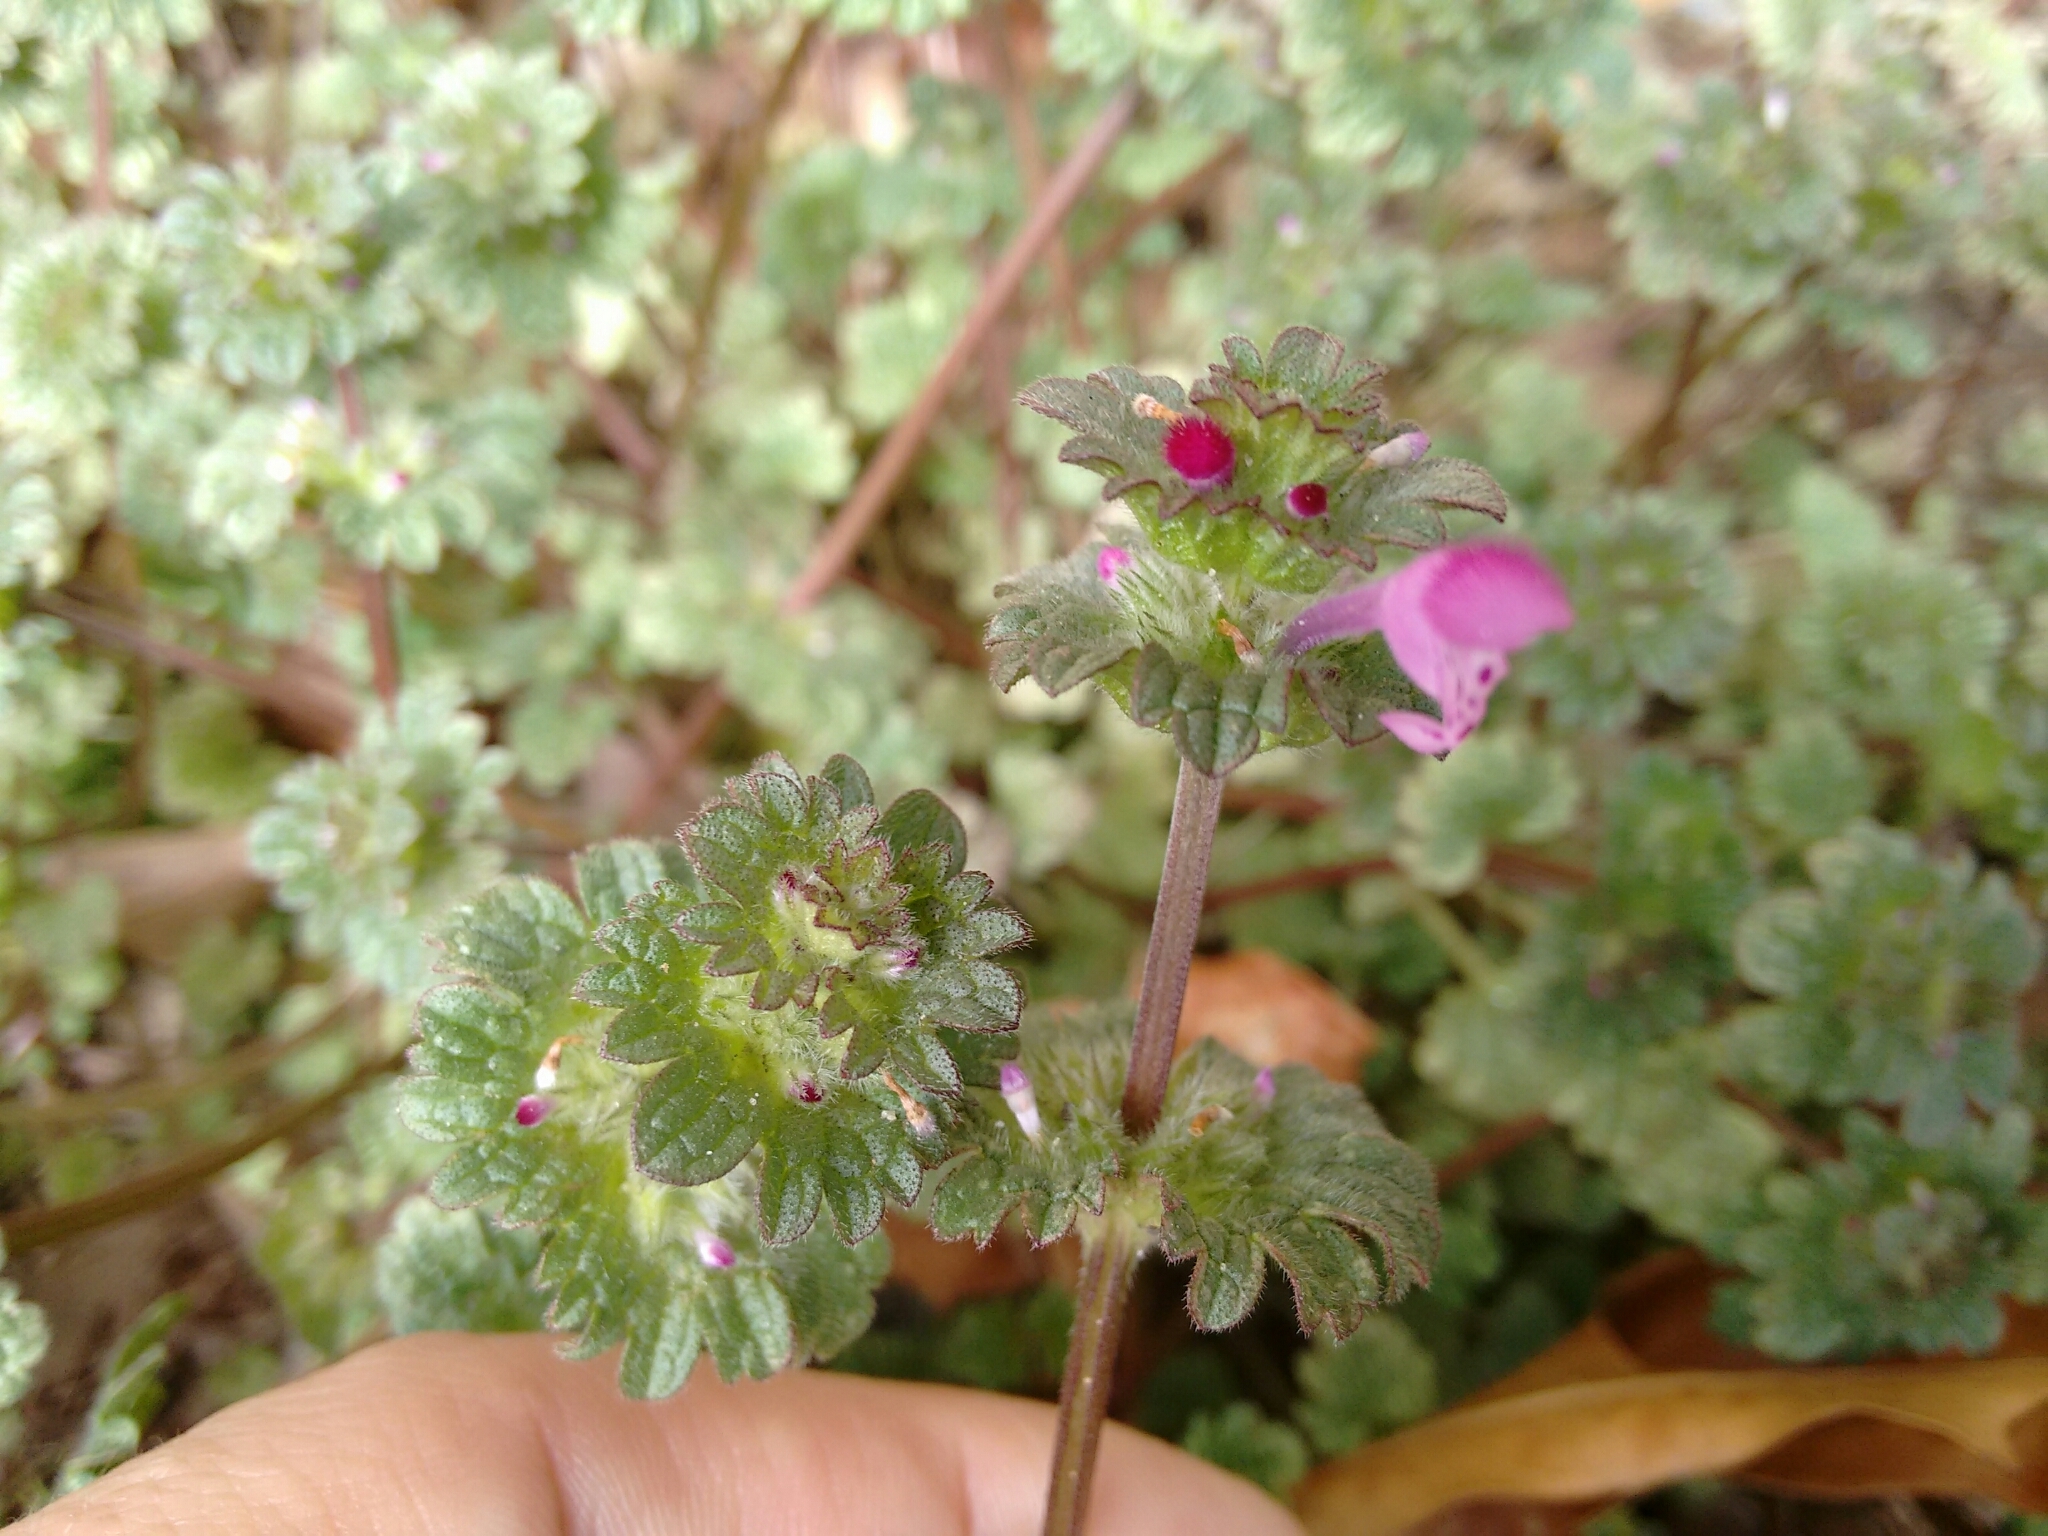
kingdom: Plantae
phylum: Tracheophyta
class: Magnoliopsida
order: Lamiales
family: Lamiaceae
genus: Lamium
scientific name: Lamium amplexicaule
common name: Henbit dead-nettle
